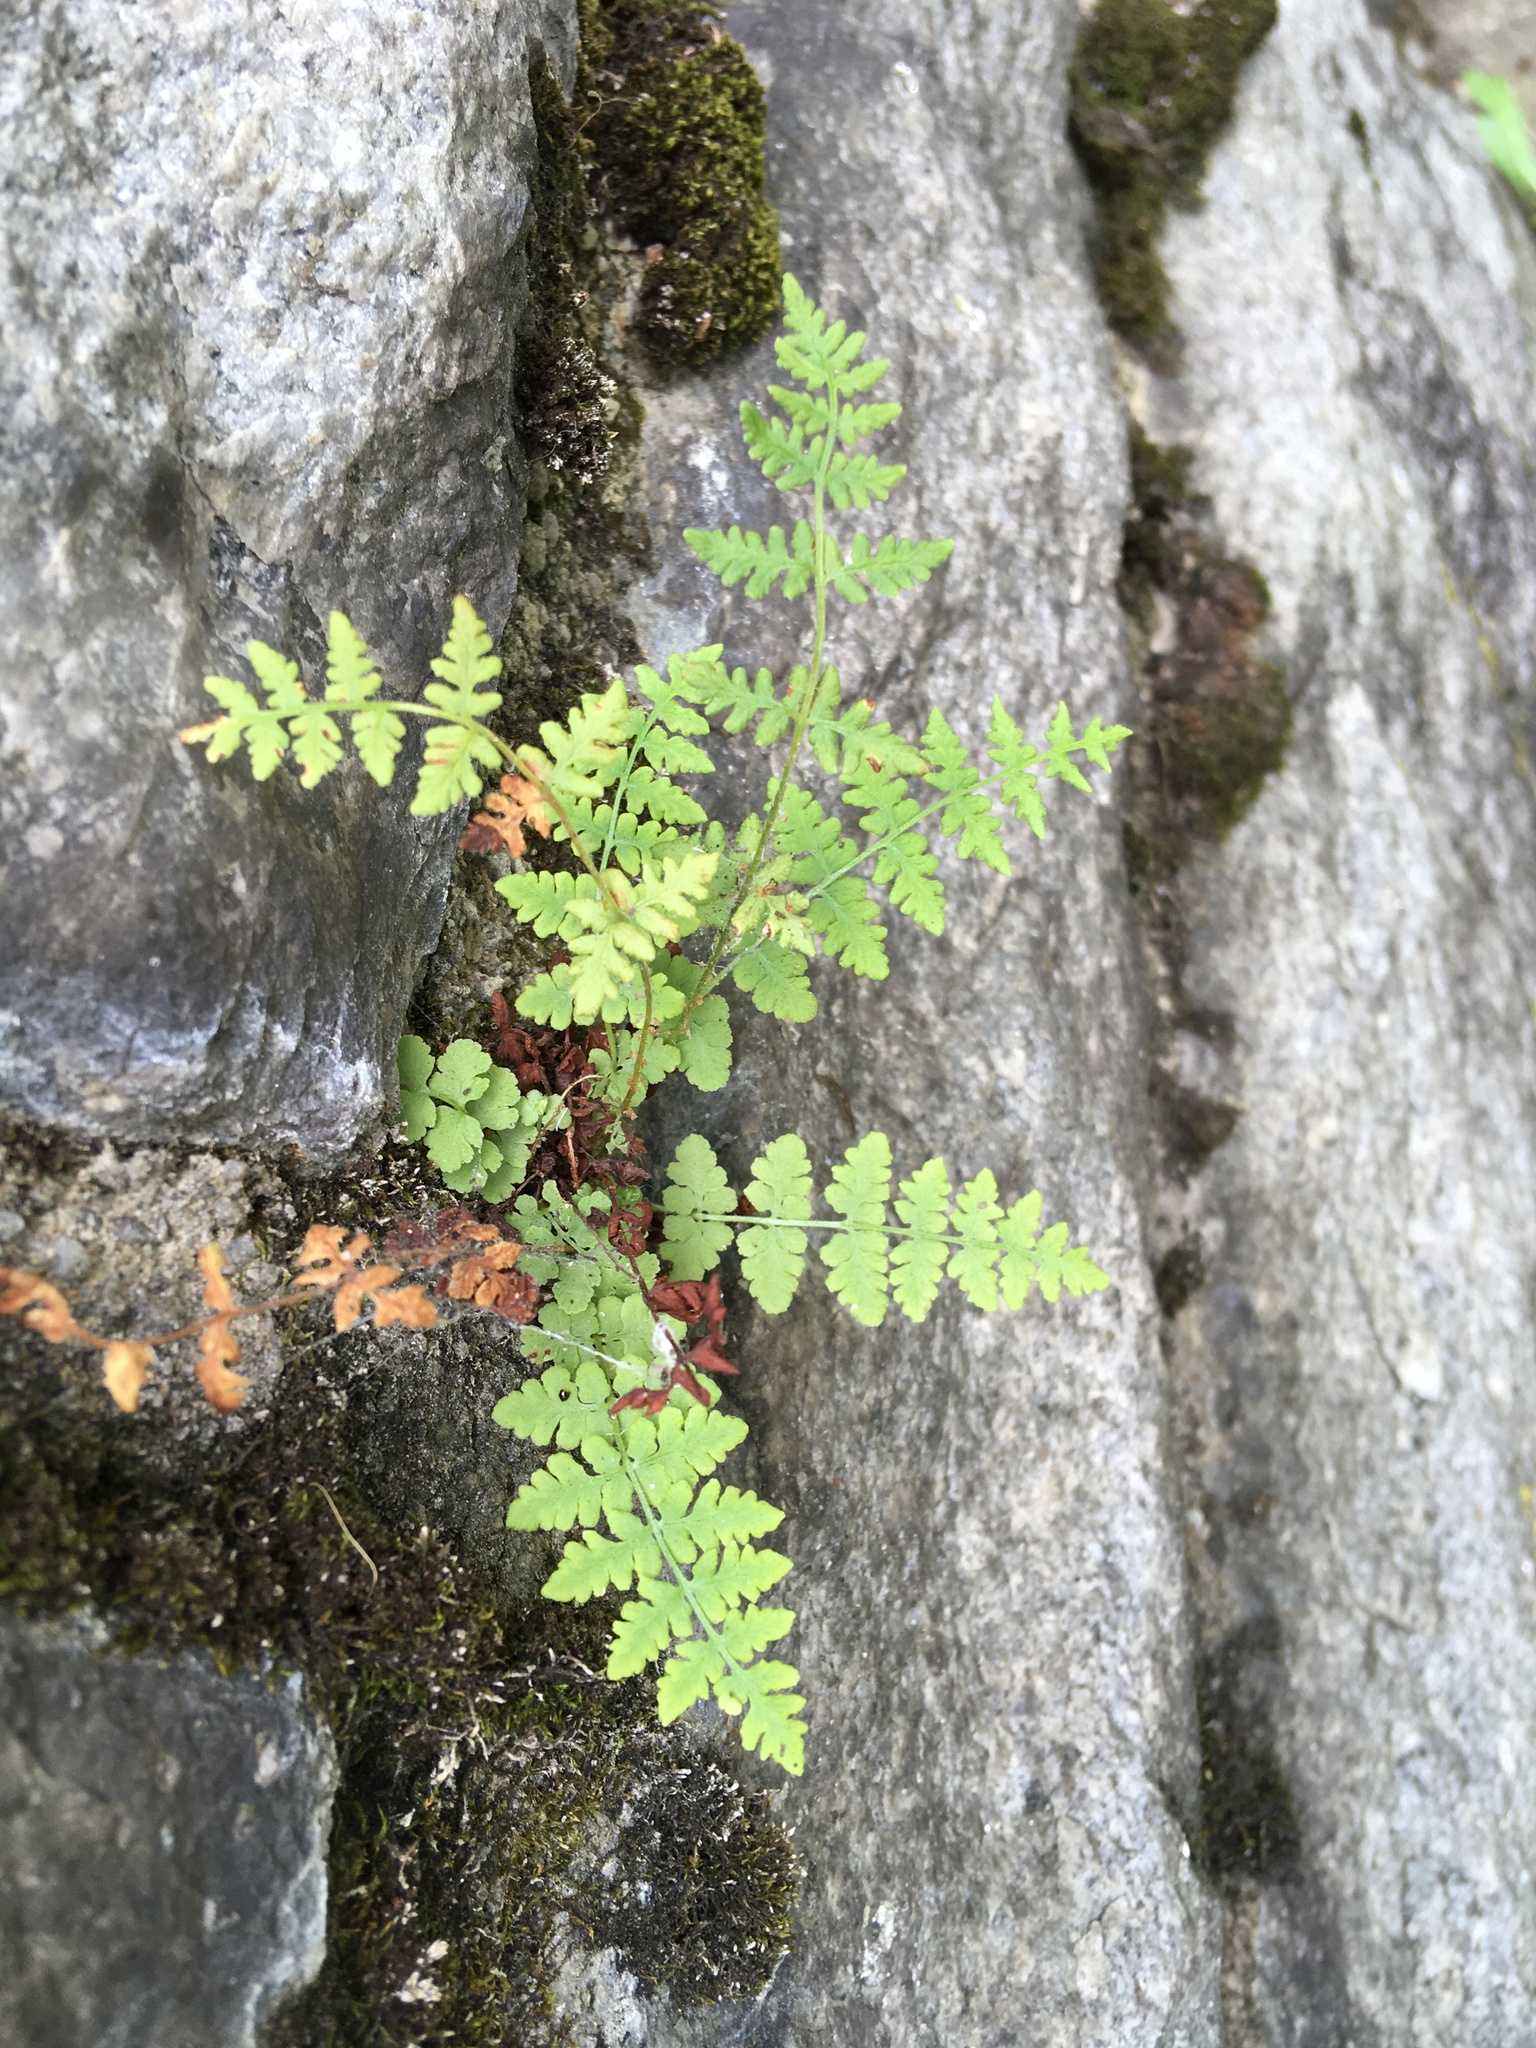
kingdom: Plantae
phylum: Tracheophyta
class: Polypodiopsida
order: Polypodiales
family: Woodsiaceae
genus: Physematium
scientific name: Physematium obtusum
